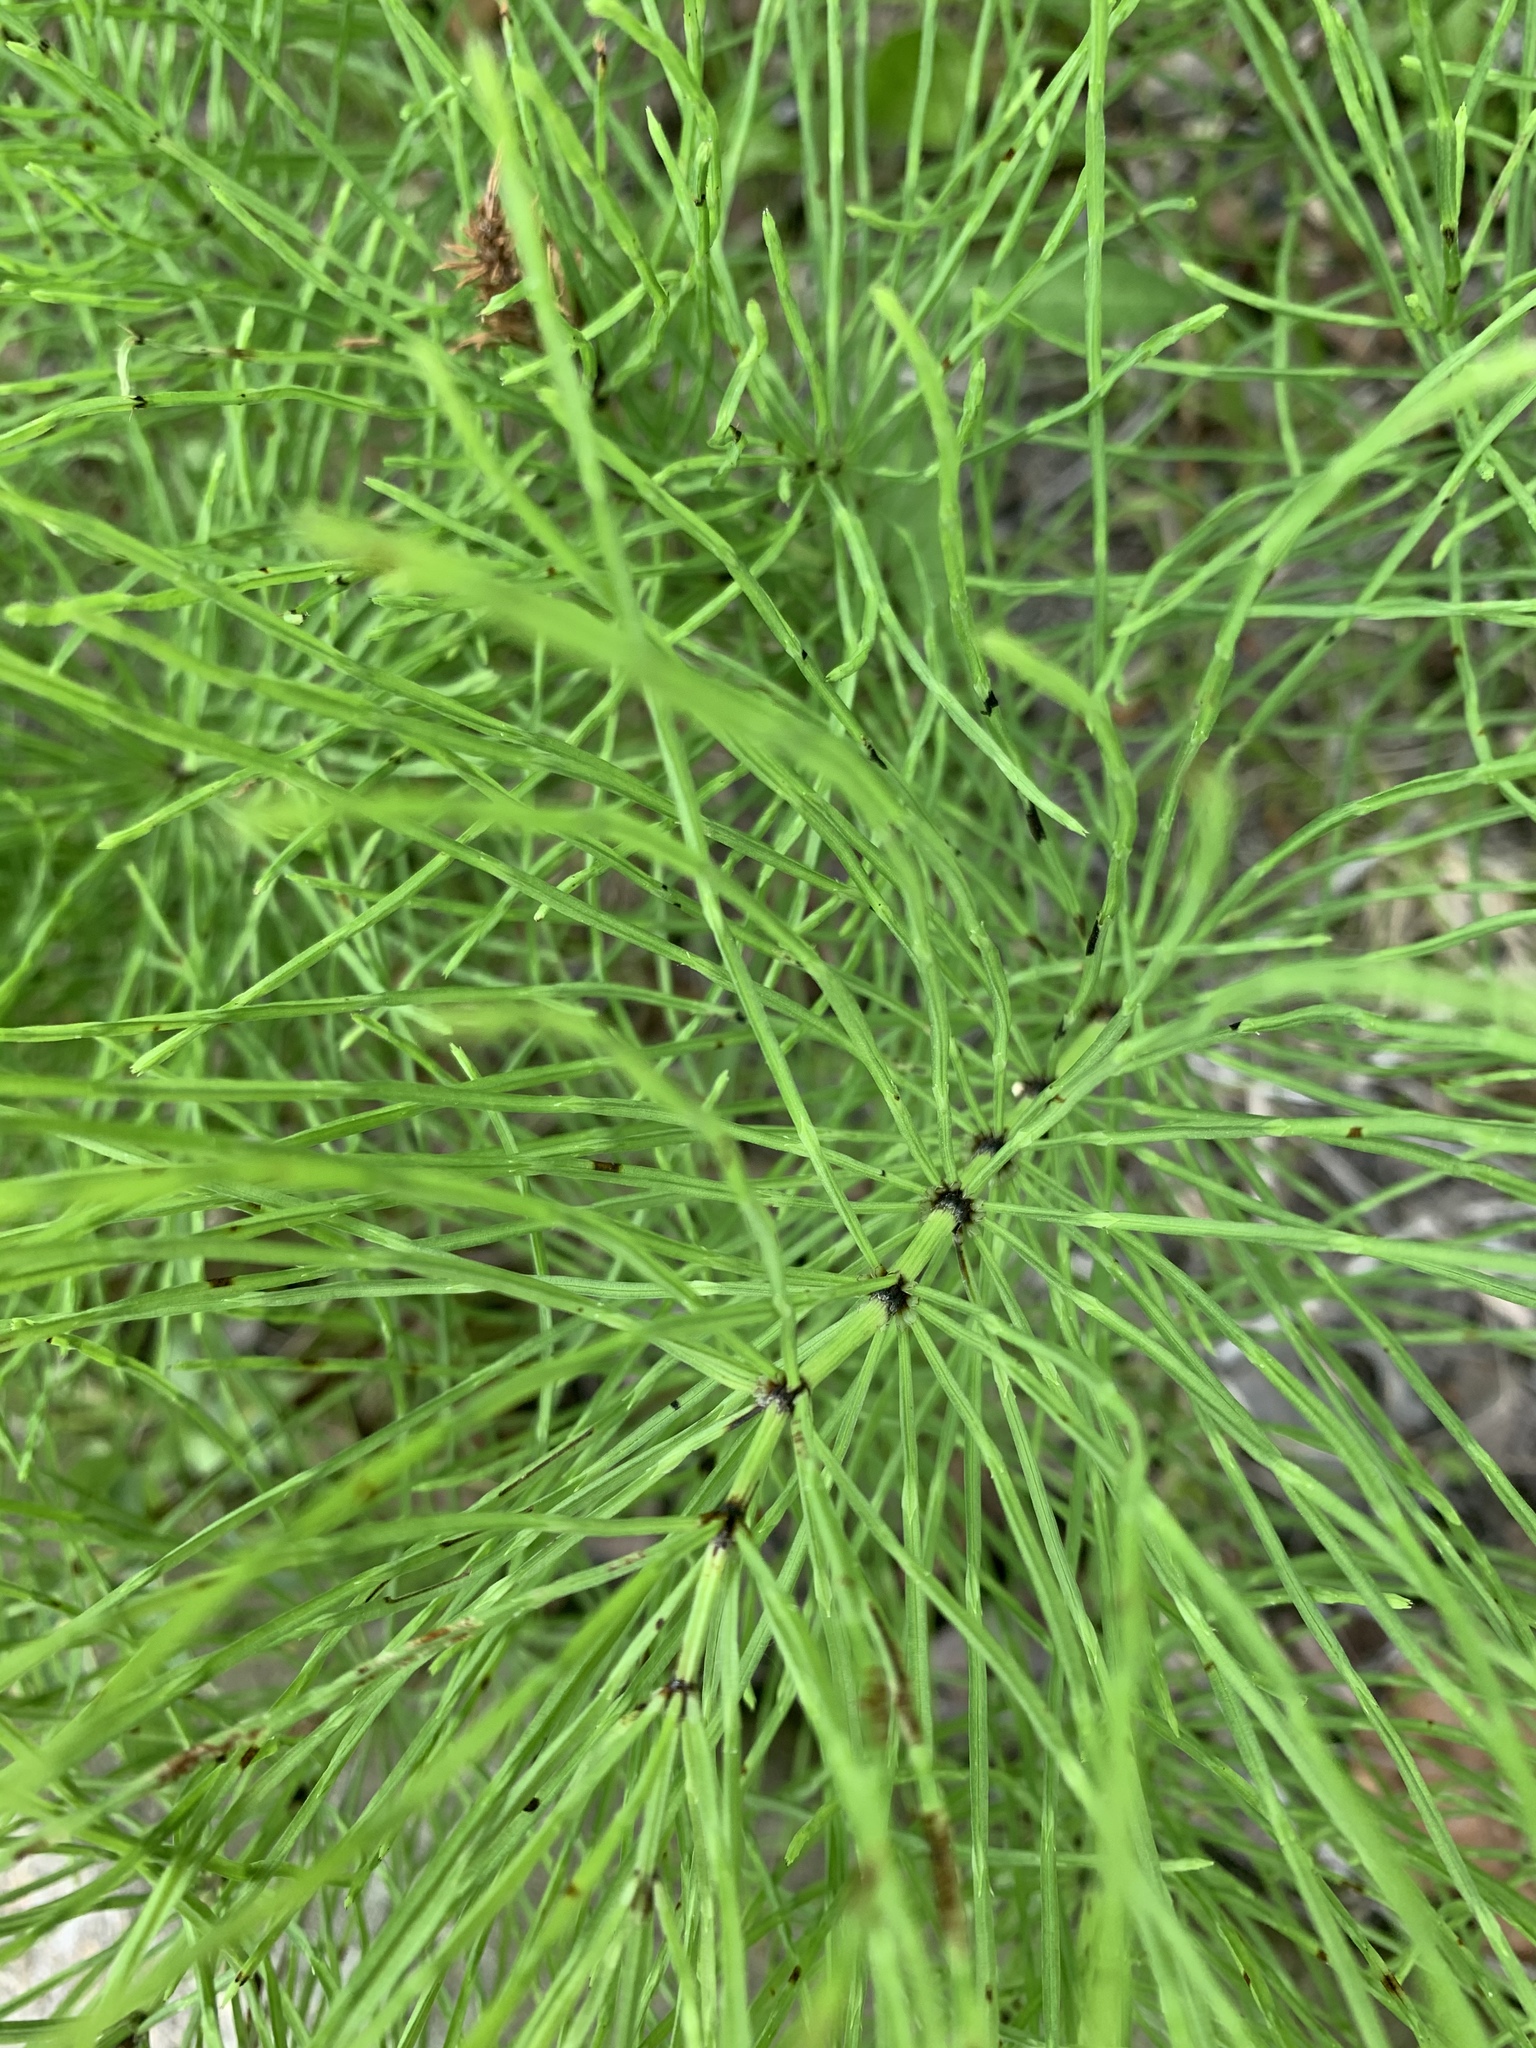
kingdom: Plantae
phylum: Tracheophyta
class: Polypodiopsida
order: Equisetales
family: Equisetaceae
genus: Equisetum
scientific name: Equisetum sylvaticum
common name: Wood horsetail
